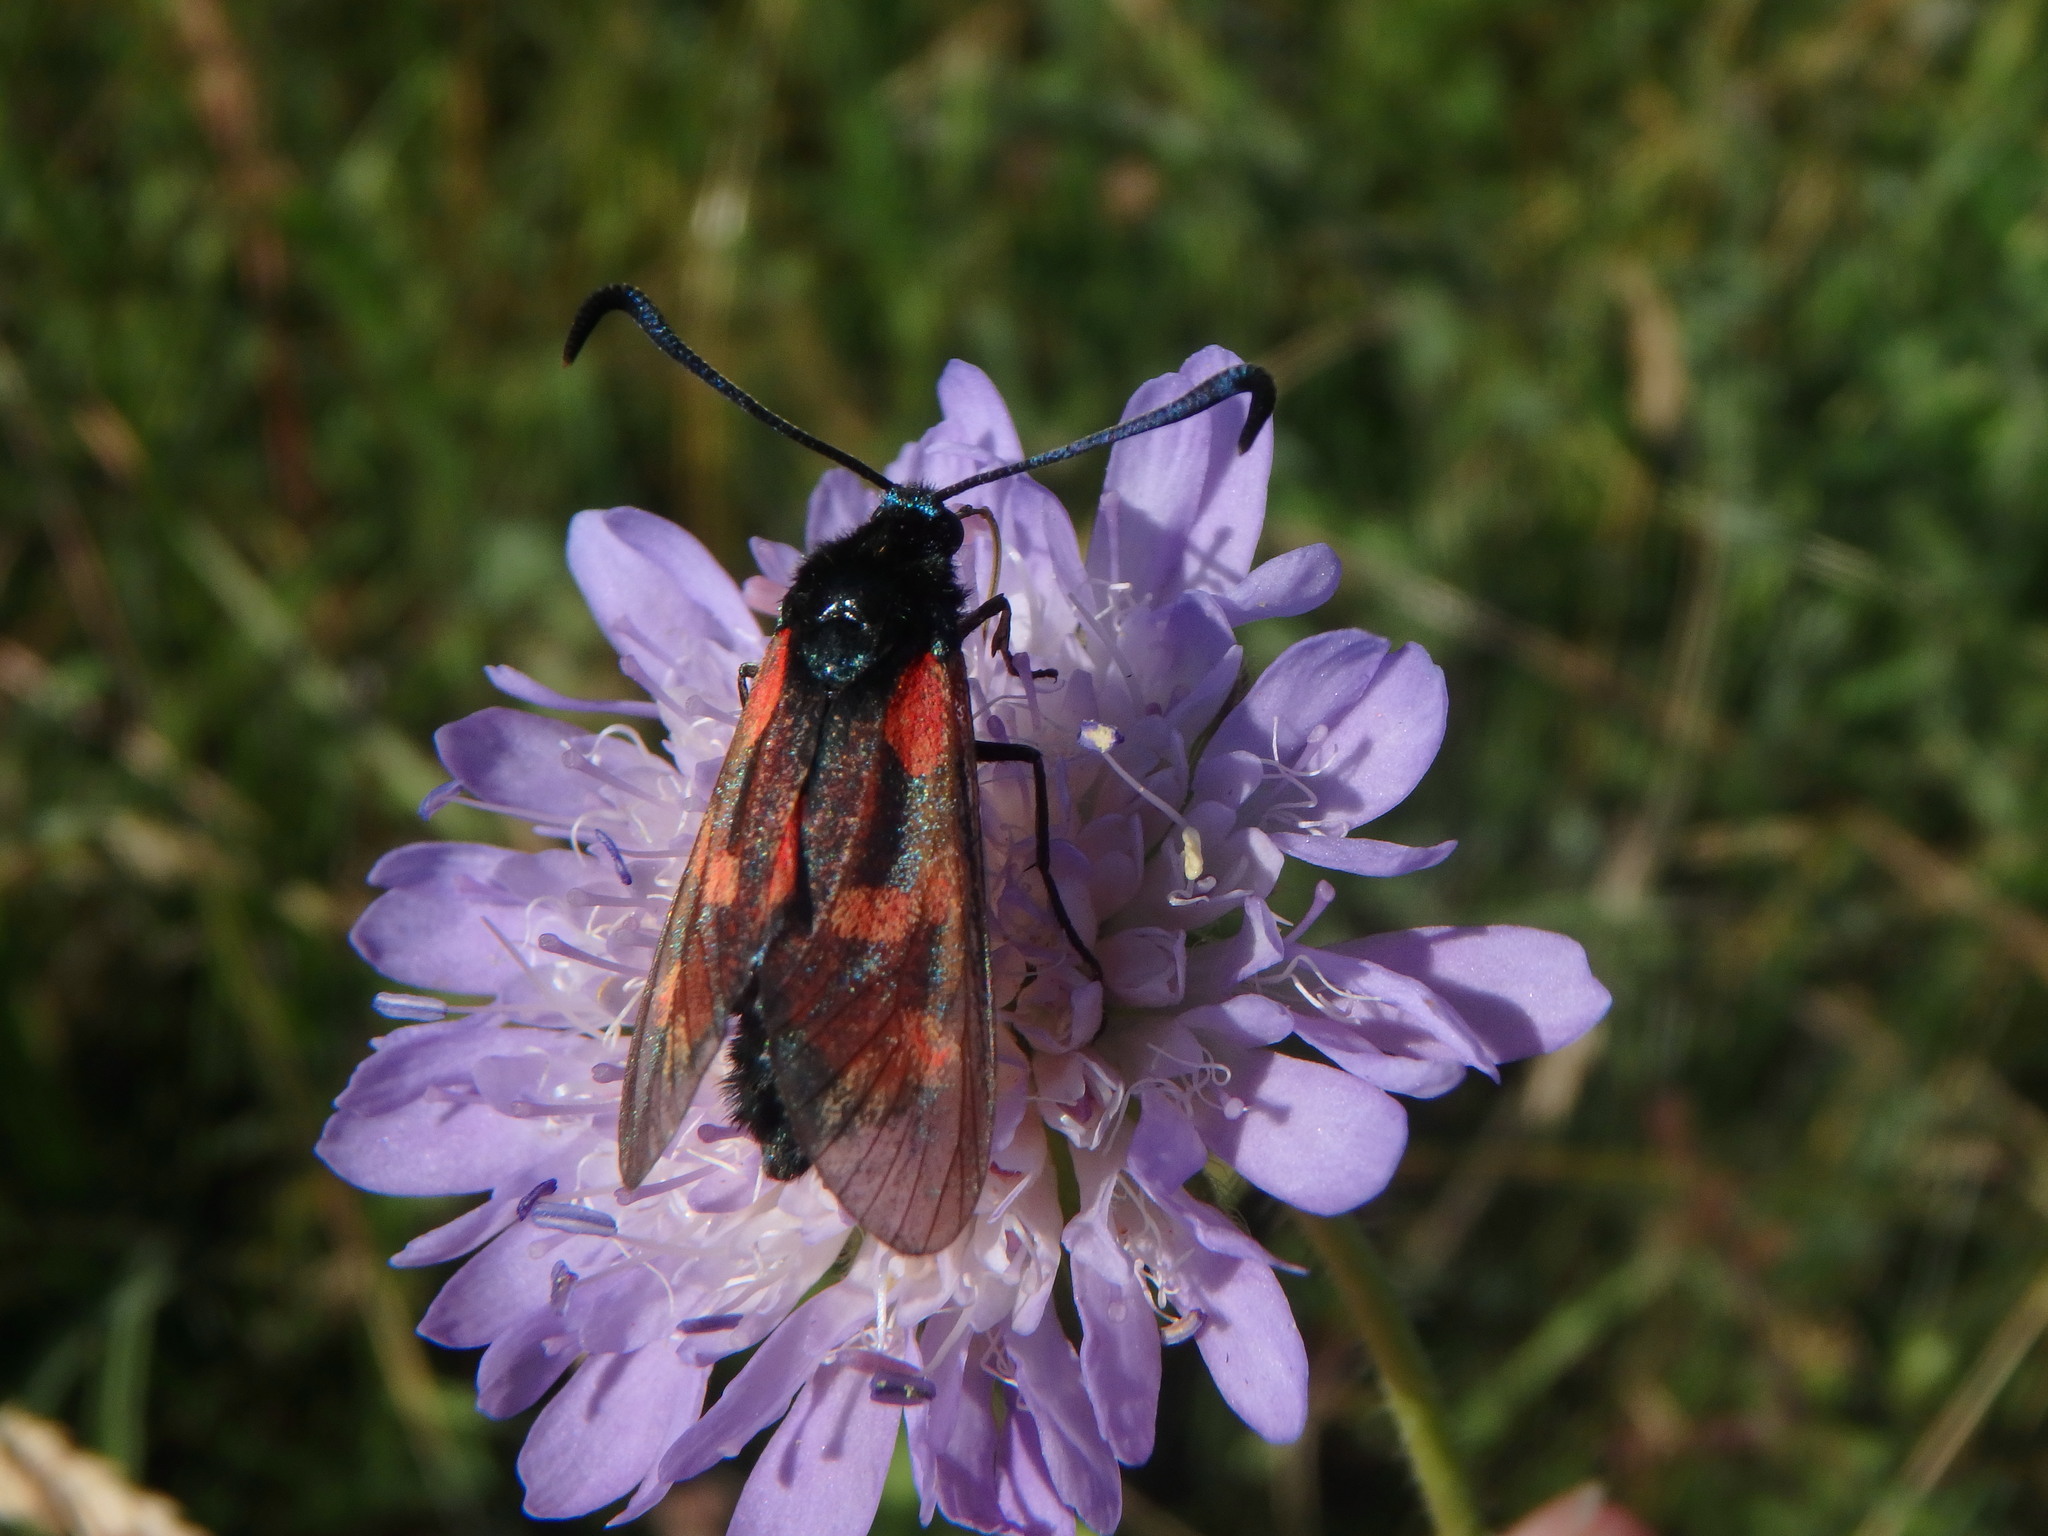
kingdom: Animalia
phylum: Arthropoda
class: Insecta
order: Lepidoptera
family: Zygaenidae
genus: Zygaena
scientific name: Zygaena filipendulae
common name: Six-spot burnet
